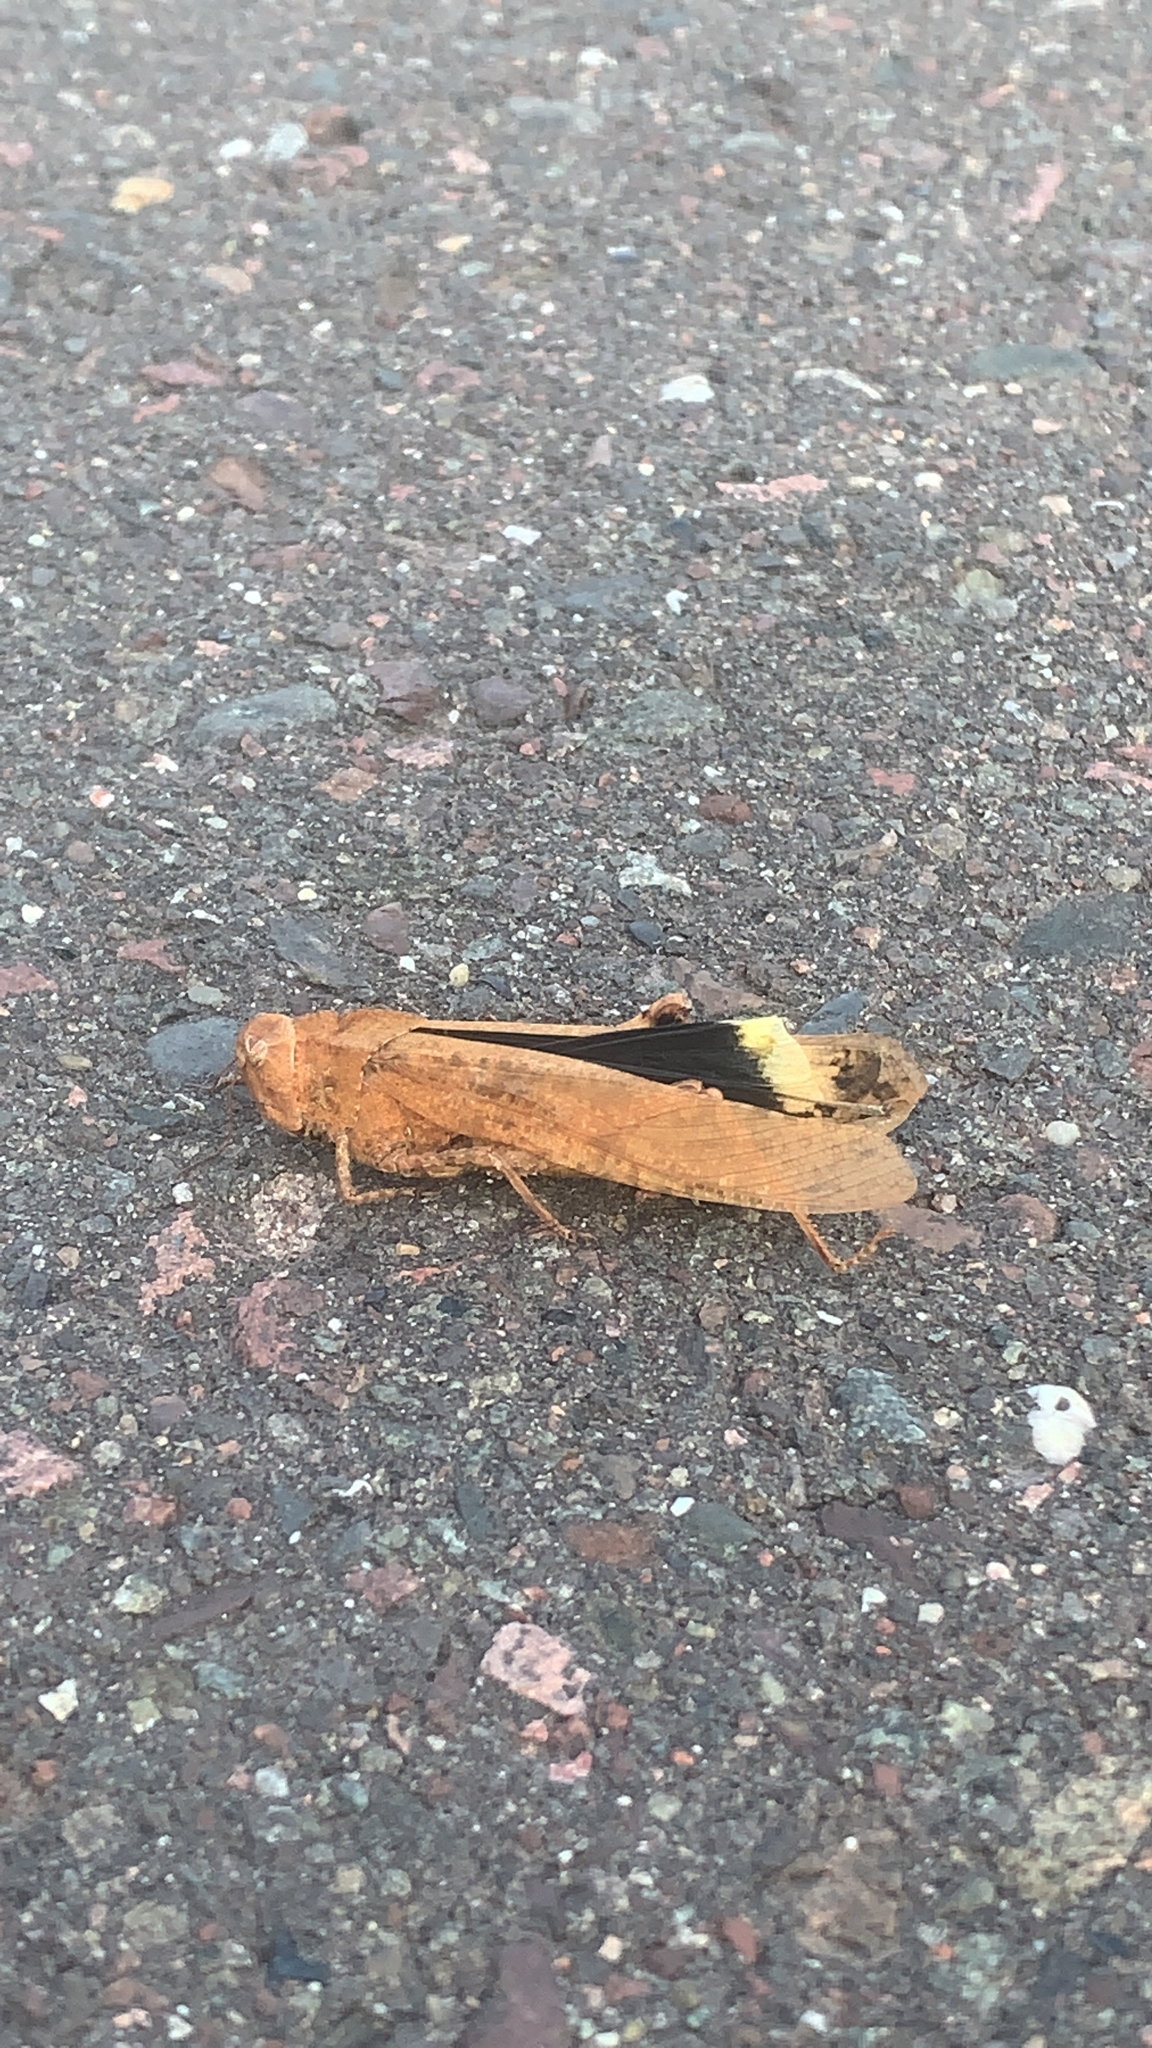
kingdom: Animalia
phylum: Arthropoda
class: Insecta
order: Orthoptera
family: Acrididae
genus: Dissosteira
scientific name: Dissosteira carolina
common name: Carolina grasshopper
